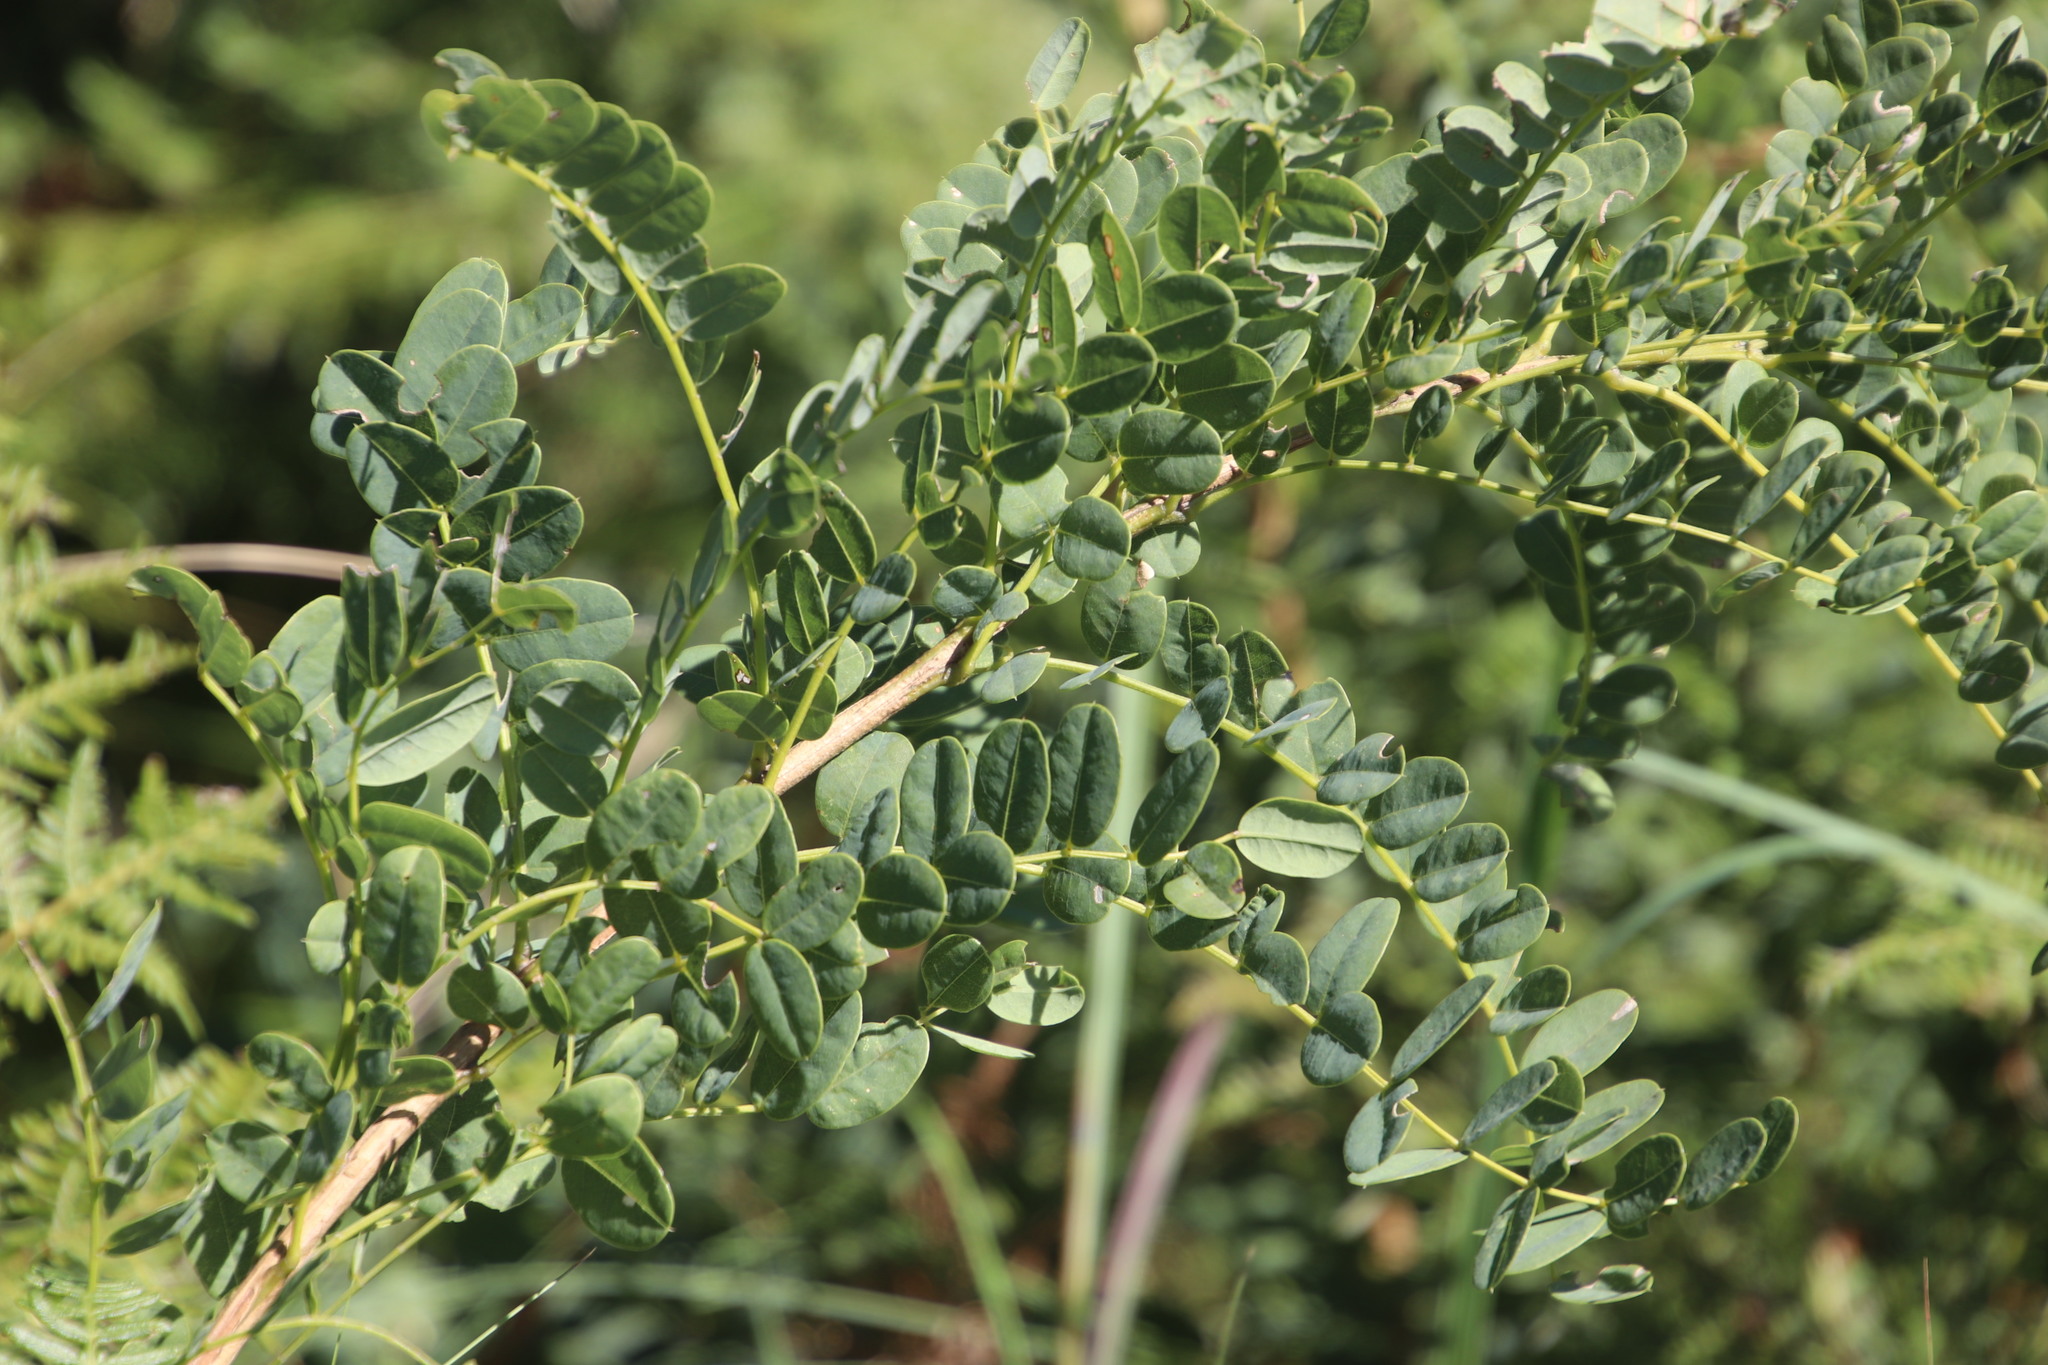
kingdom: Plantae
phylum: Tracheophyta
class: Magnoliopsida
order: Fabales
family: Fabaceae
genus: Calpurnia
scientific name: Calpurnia sericea
